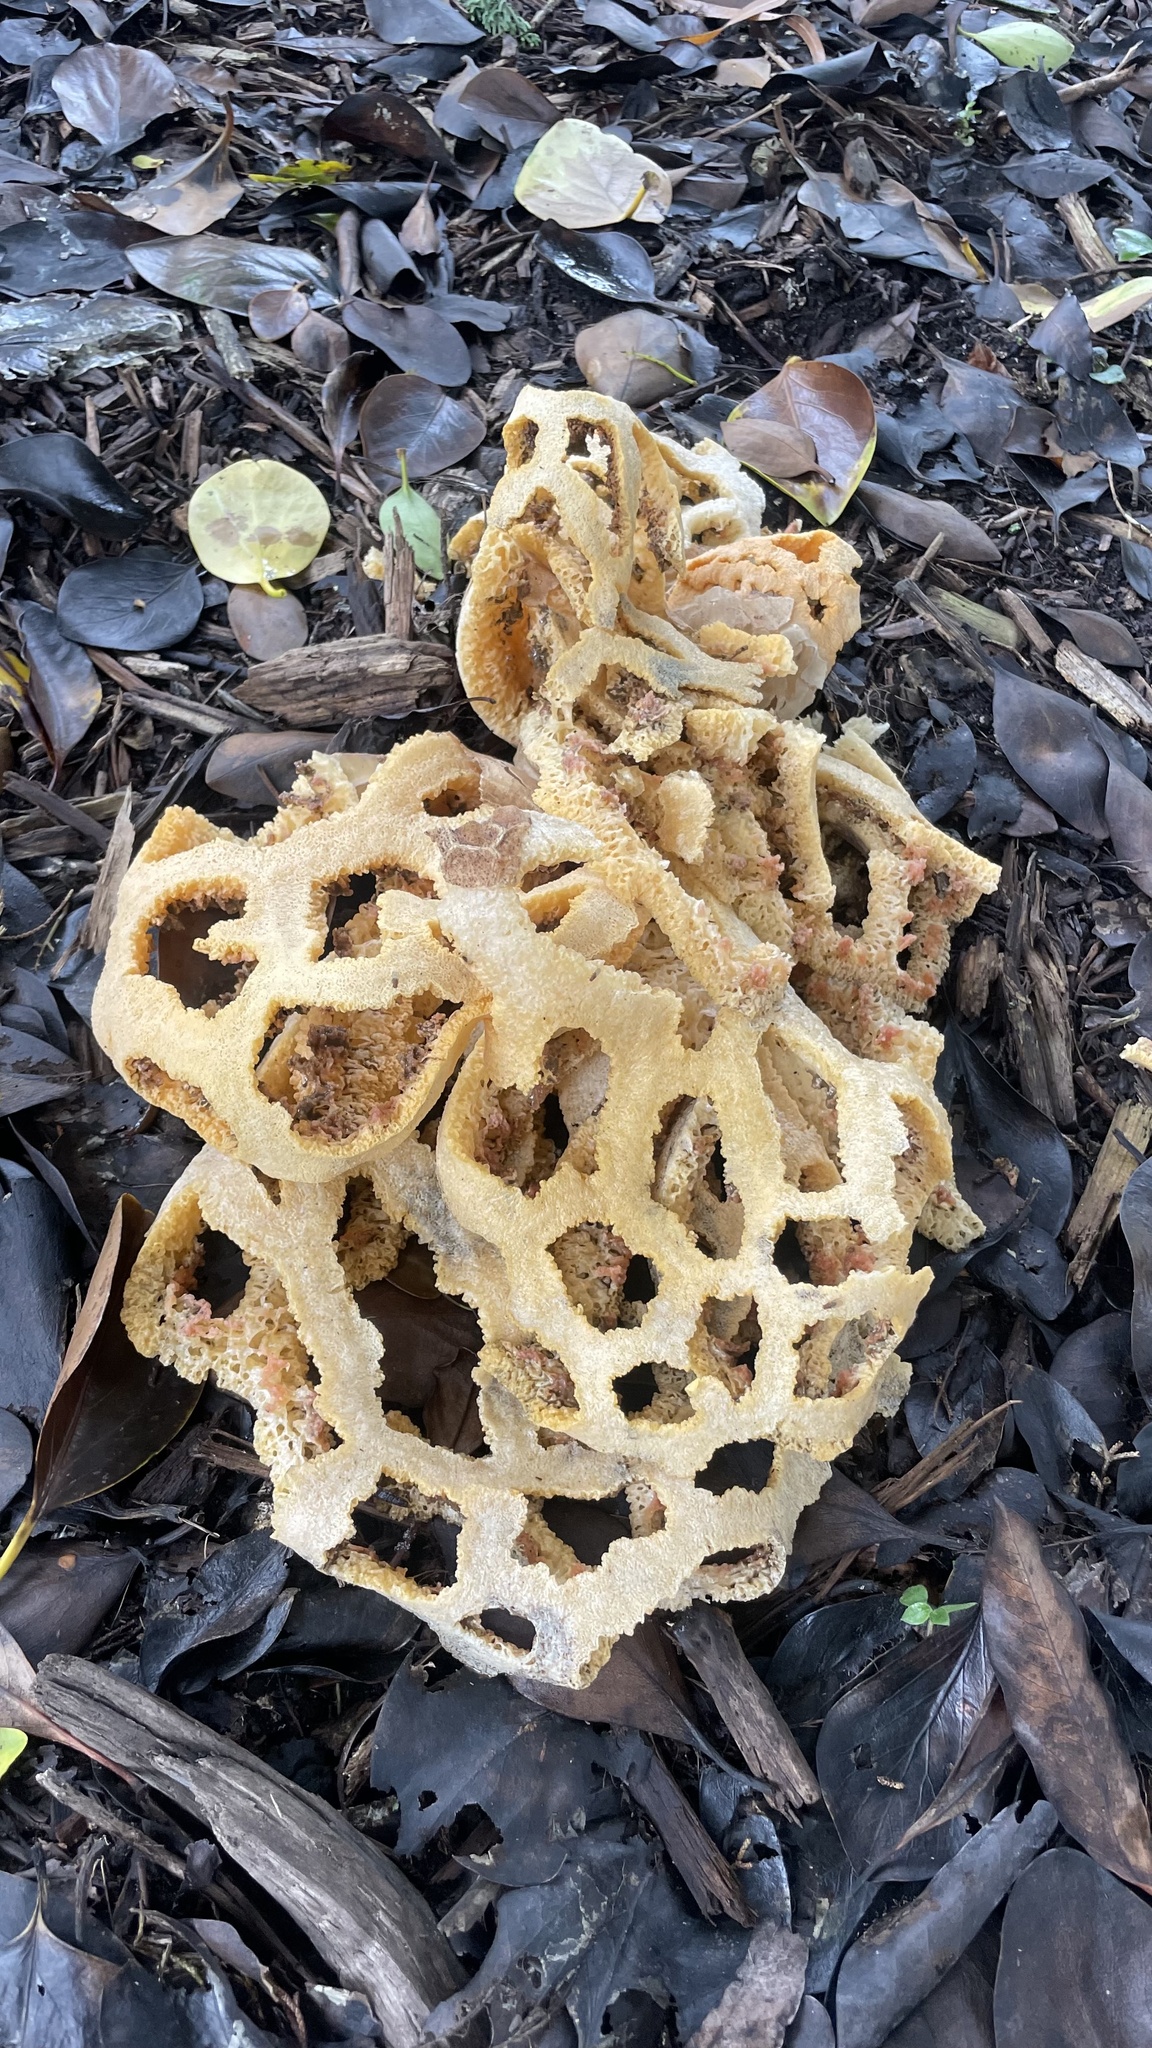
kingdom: Fungi
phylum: Basidiomycota
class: Agaricomycetes
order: Phallales
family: Phallaceae
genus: Clathrus
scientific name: Clathrus ruber
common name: Red cage
